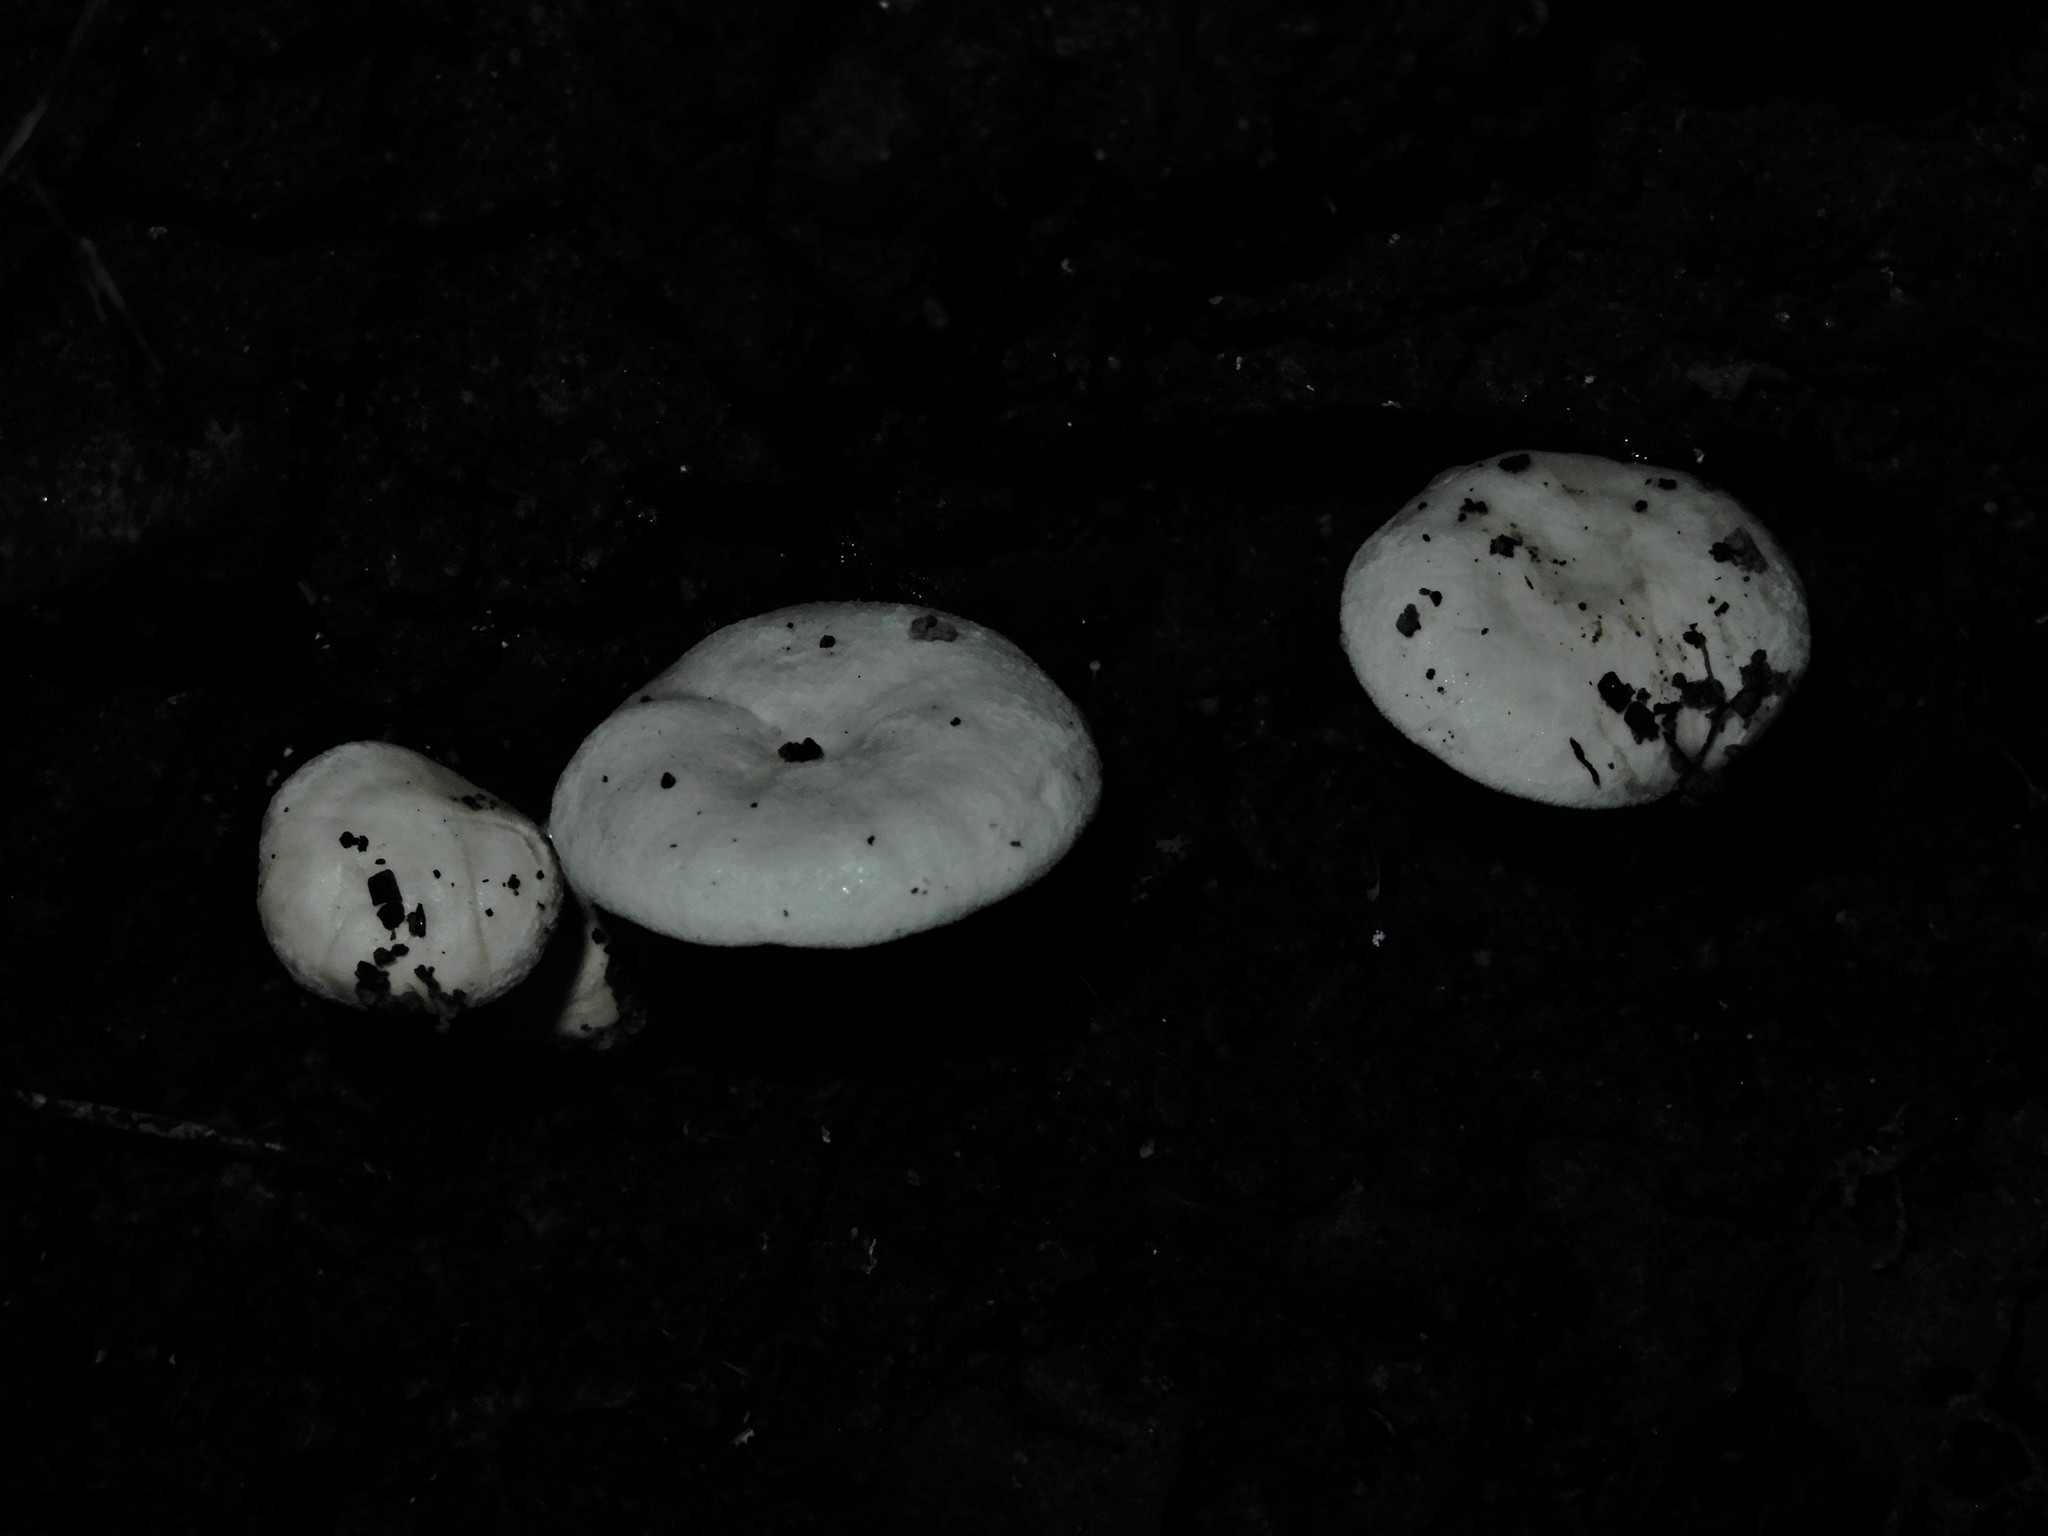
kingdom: Fungi
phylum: Basidiomycota
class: Agaricomycetes
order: Agaricales
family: Hygrophoraceae
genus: Hygrophorus
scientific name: Hygrophorus involutus
